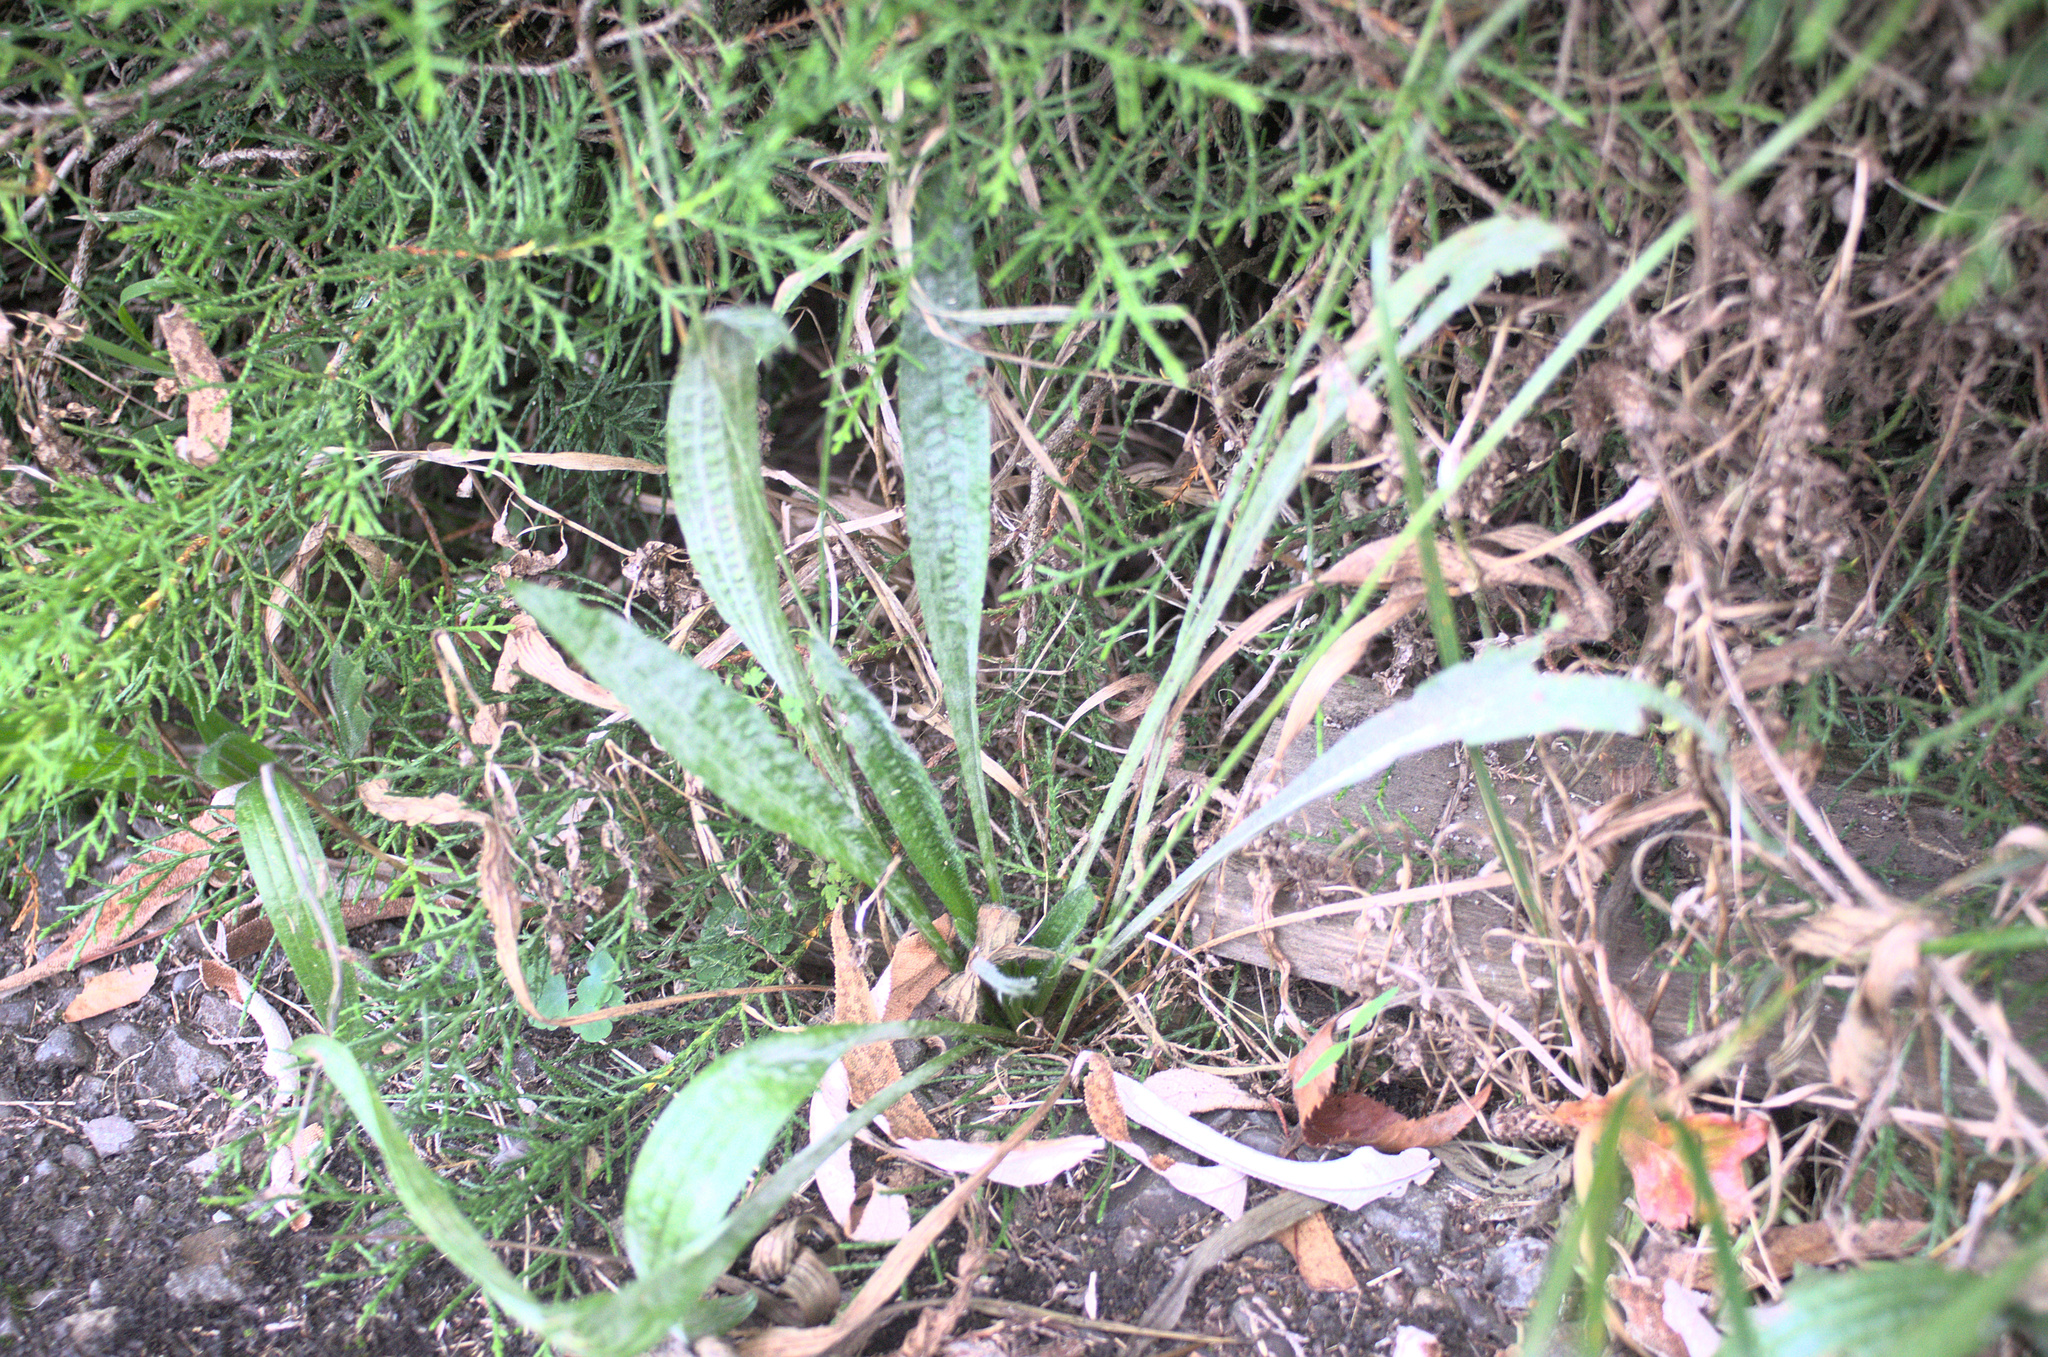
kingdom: Plantae
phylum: Tracheophyta
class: Magnoliopsida
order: Lamiales
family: Plantaginaceae
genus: Plantago
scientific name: Plantago lanceolata
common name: Ribwort plantain
